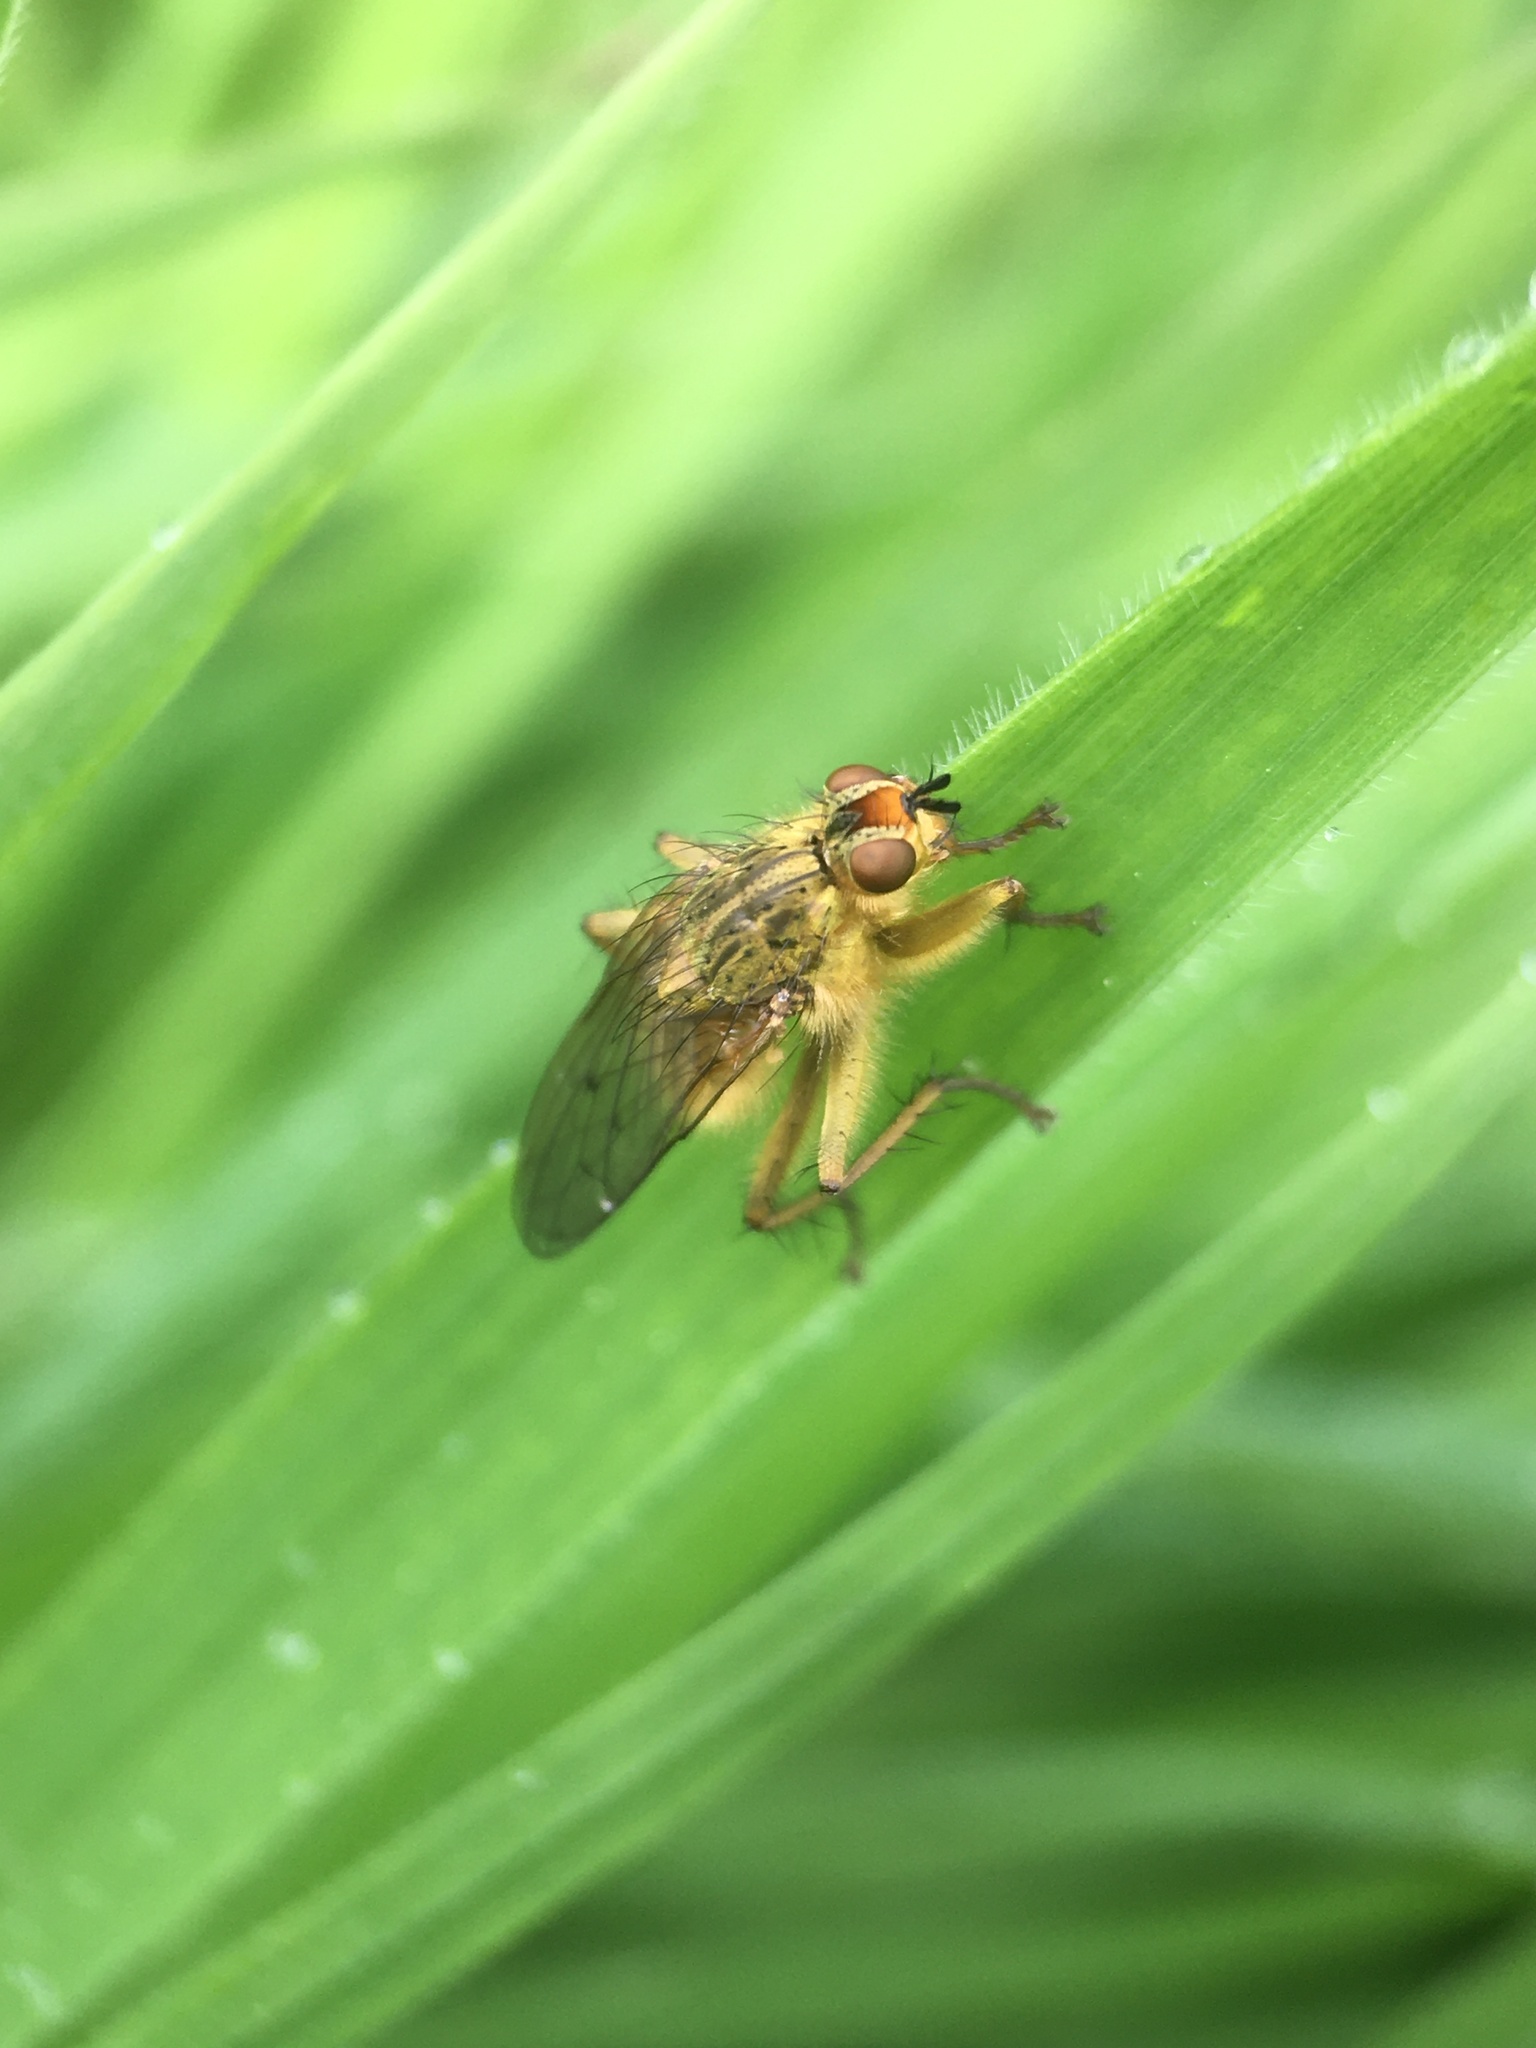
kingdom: Animalia
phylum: Arthropoda
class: Insecta
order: Diptera
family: Scathophagidae
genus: Scathophaga
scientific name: Scathophaga stercoraria
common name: Yellow dung fly
